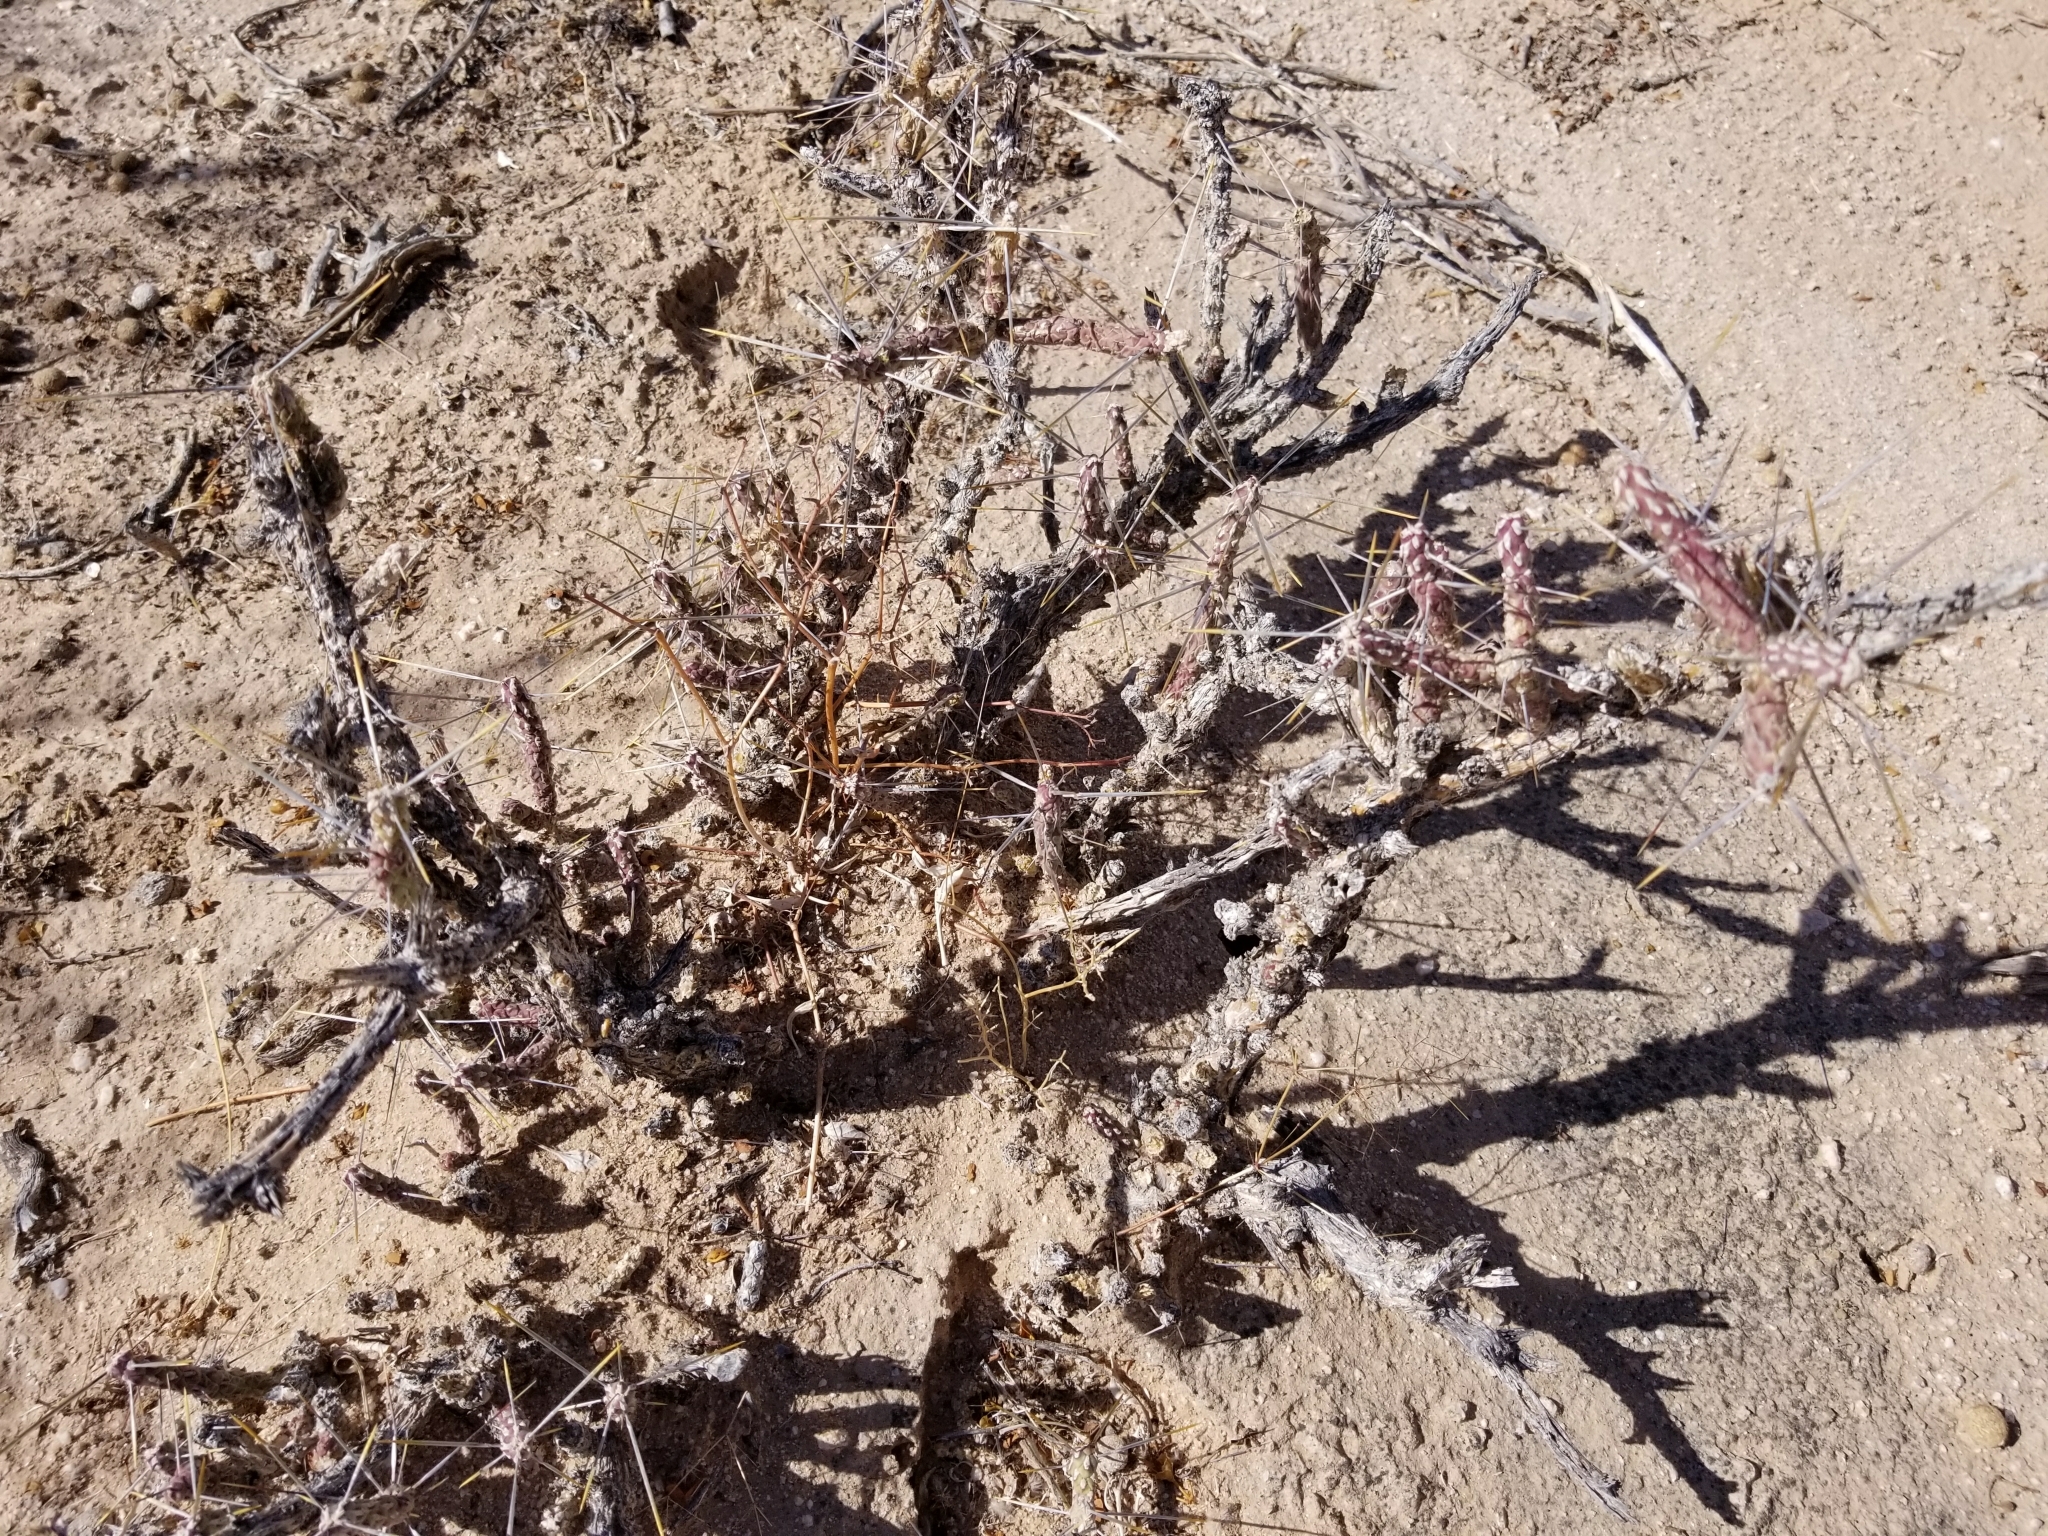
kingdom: Plantae
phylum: Tracheophyta
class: Magnoliopsida
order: Caryophyllales
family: Cactaceae
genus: Cylindropuntia
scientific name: Cylindropuntia ramosissima
